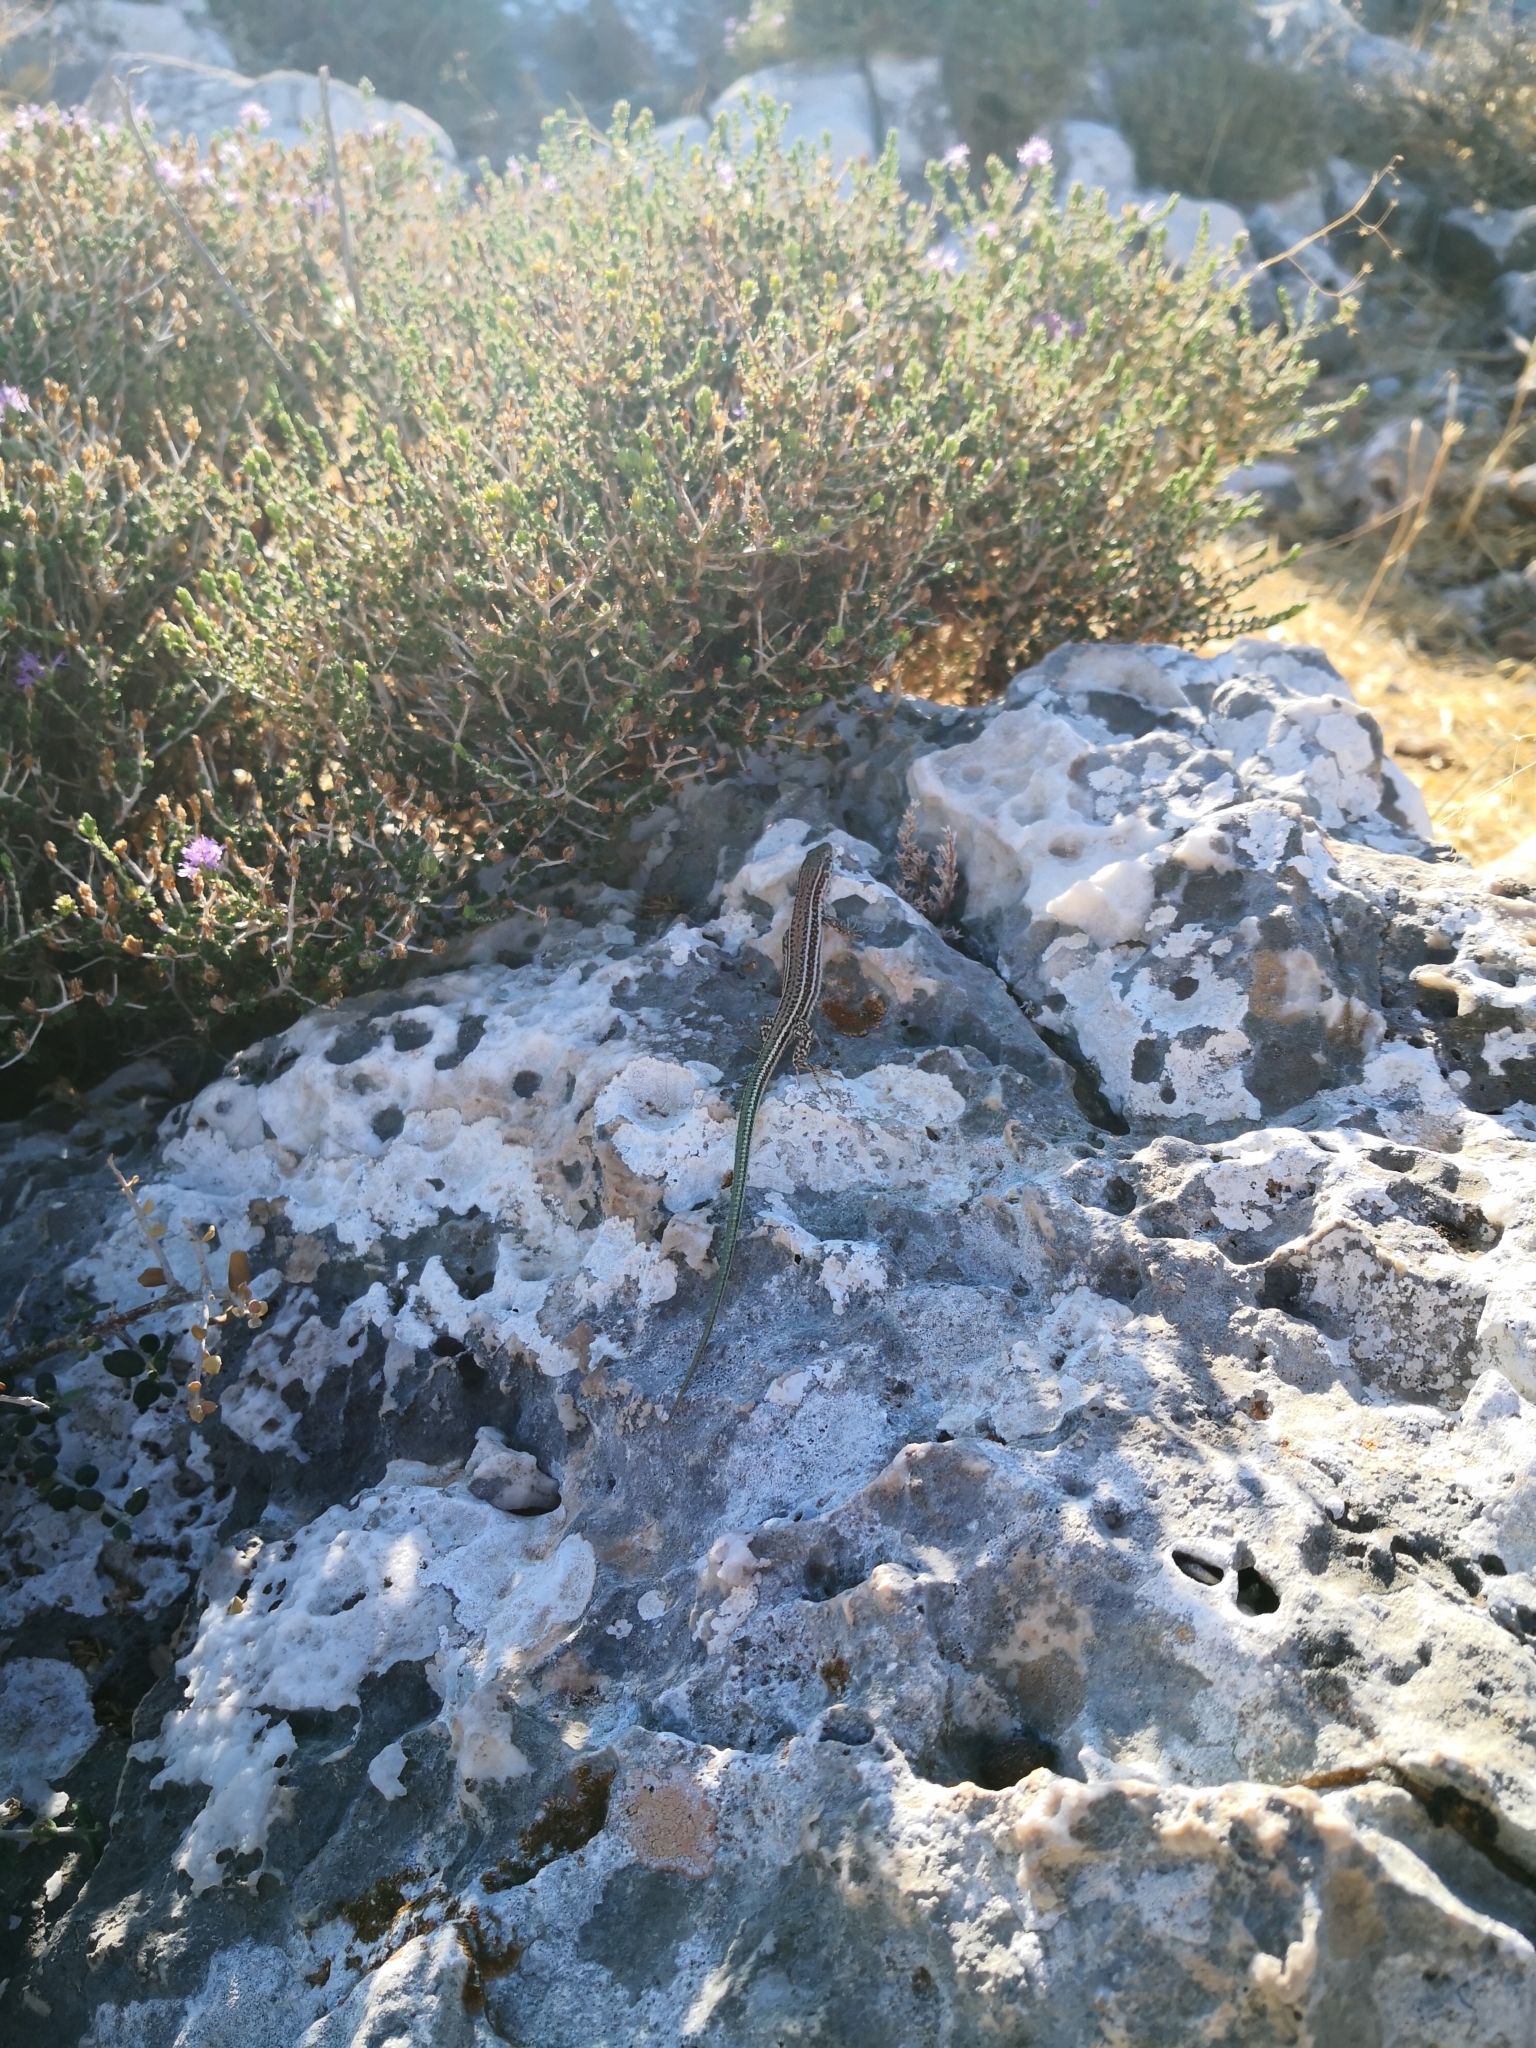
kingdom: Animalia
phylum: Chordata
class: Squamata
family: Lacertidae
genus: Podarcis
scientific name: Podarcis cretensis
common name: Cretan wall lizard
